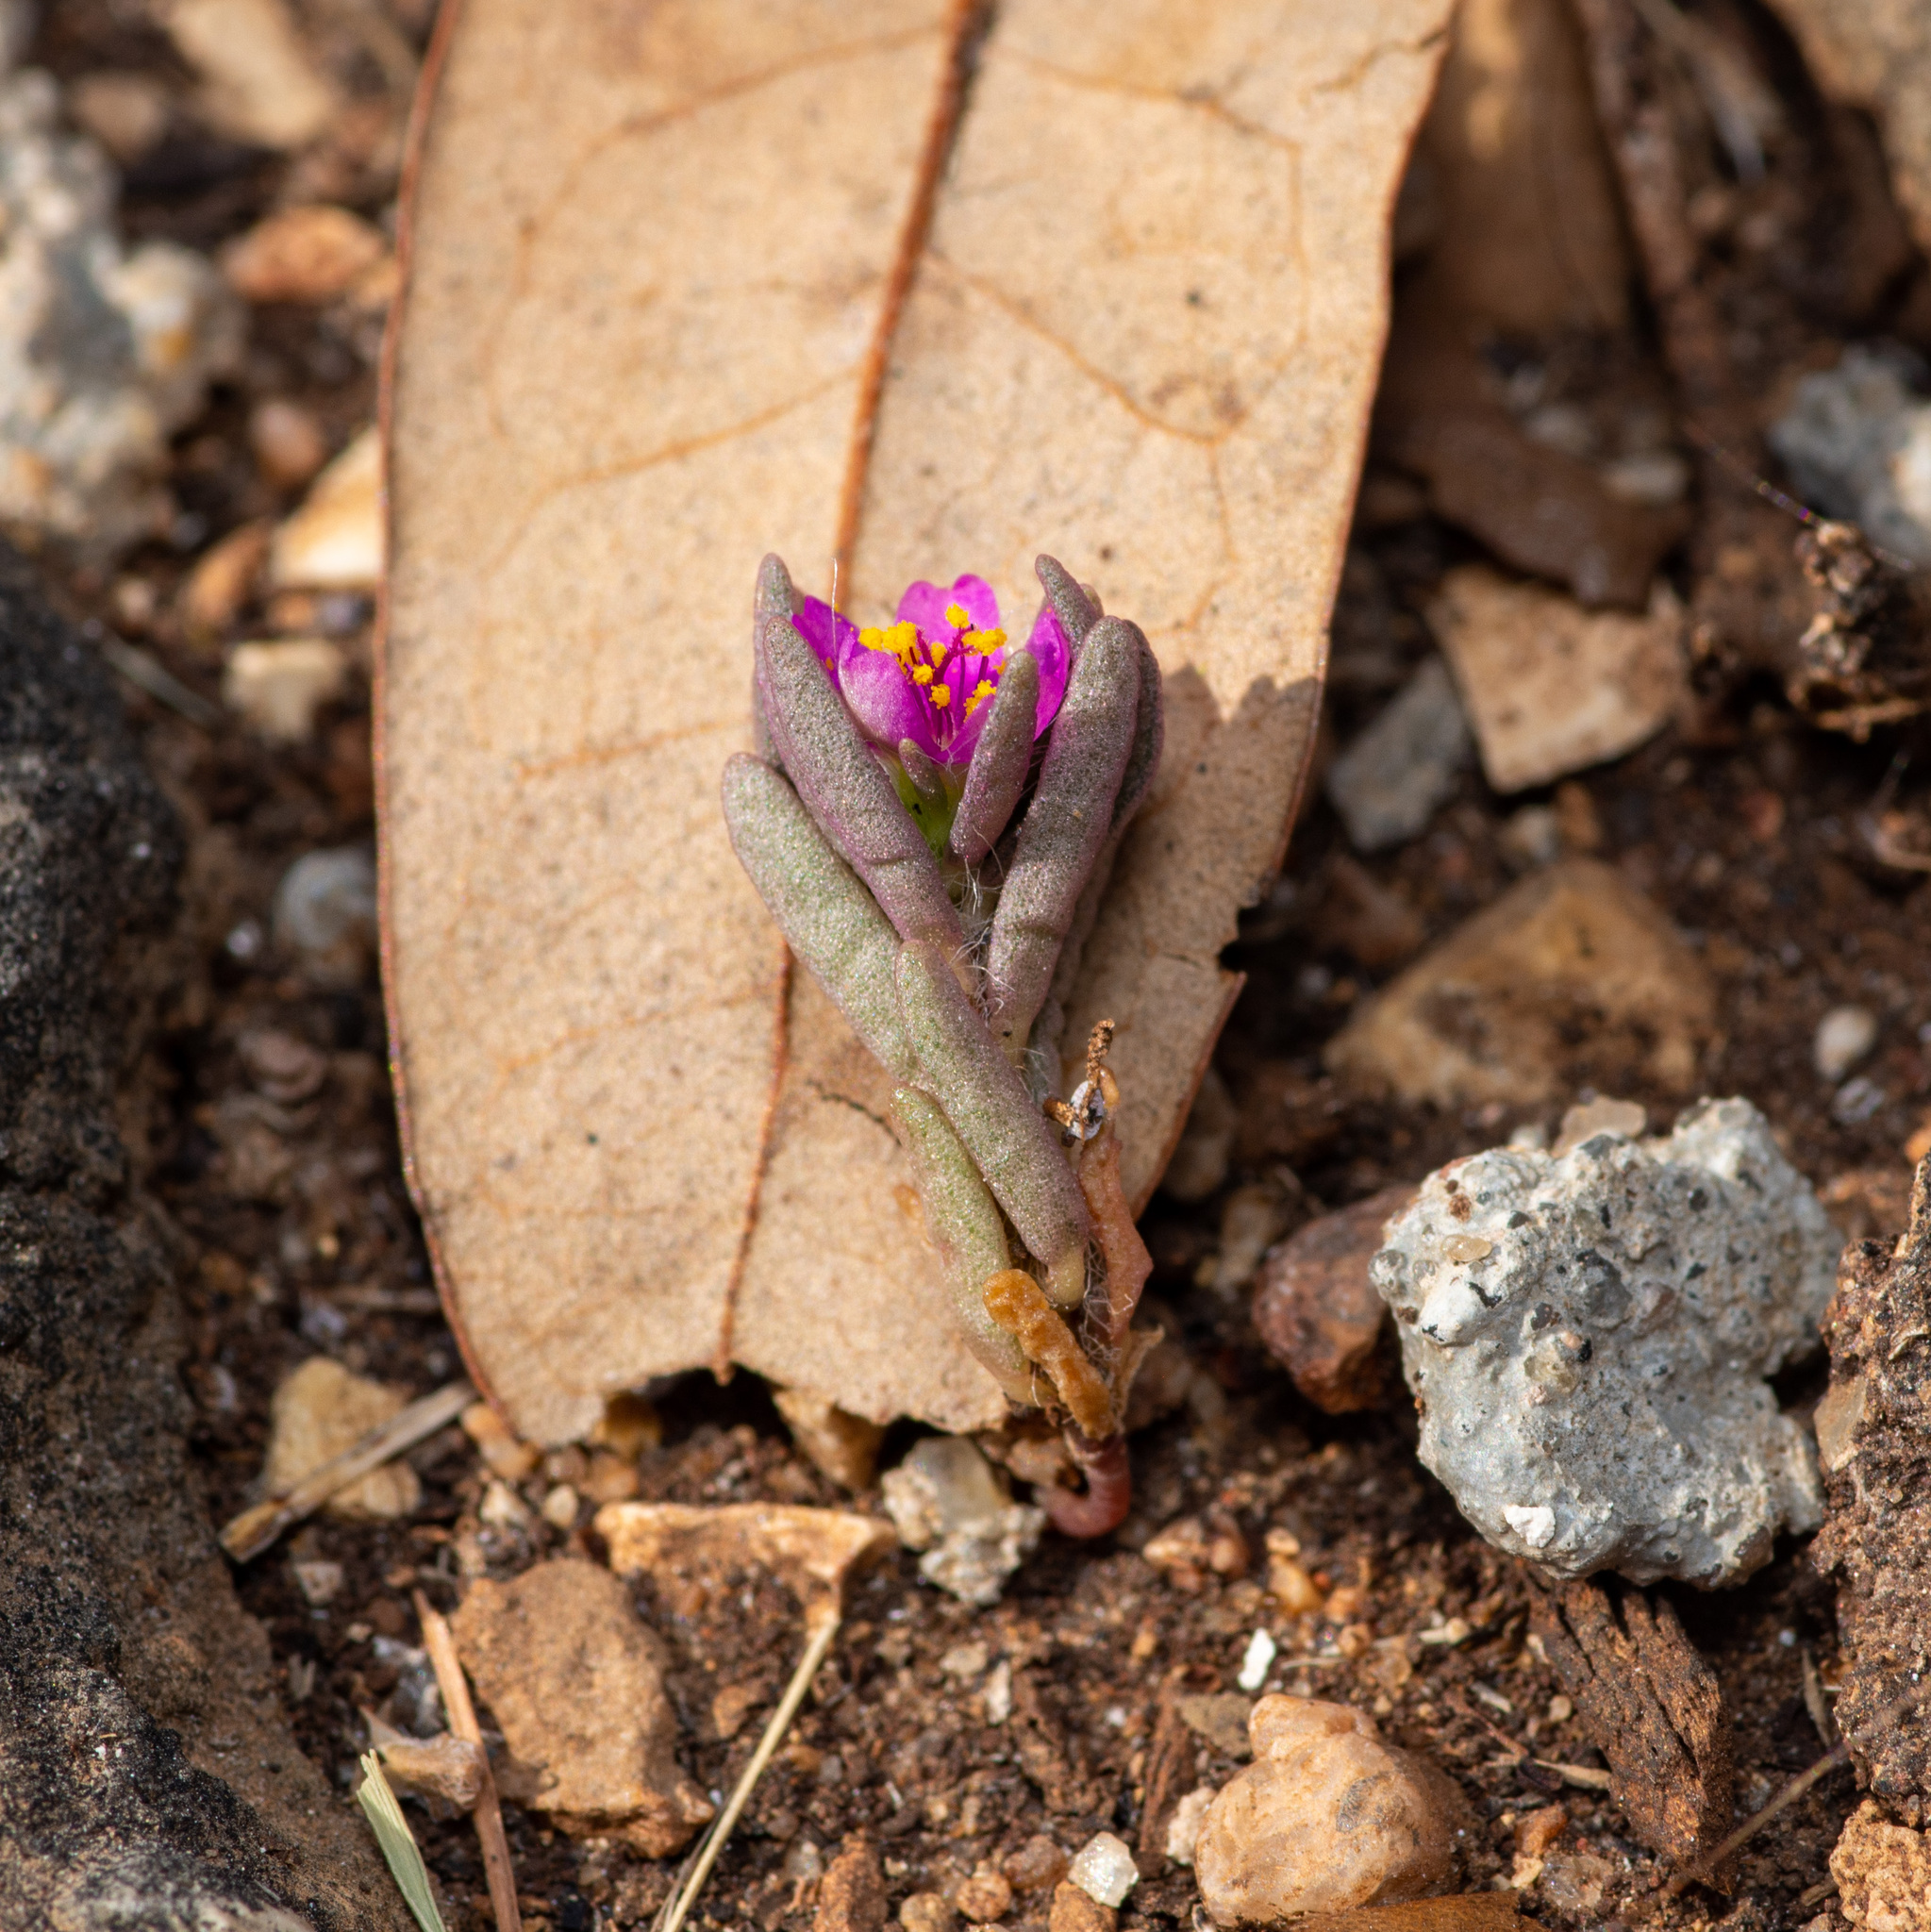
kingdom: Plantae
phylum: Tracheophyta
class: Magnoliopsida
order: Caryophyllales
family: Portulacaceae
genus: Portulaca
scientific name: Portulaca pilosa
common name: Kiss me quick
